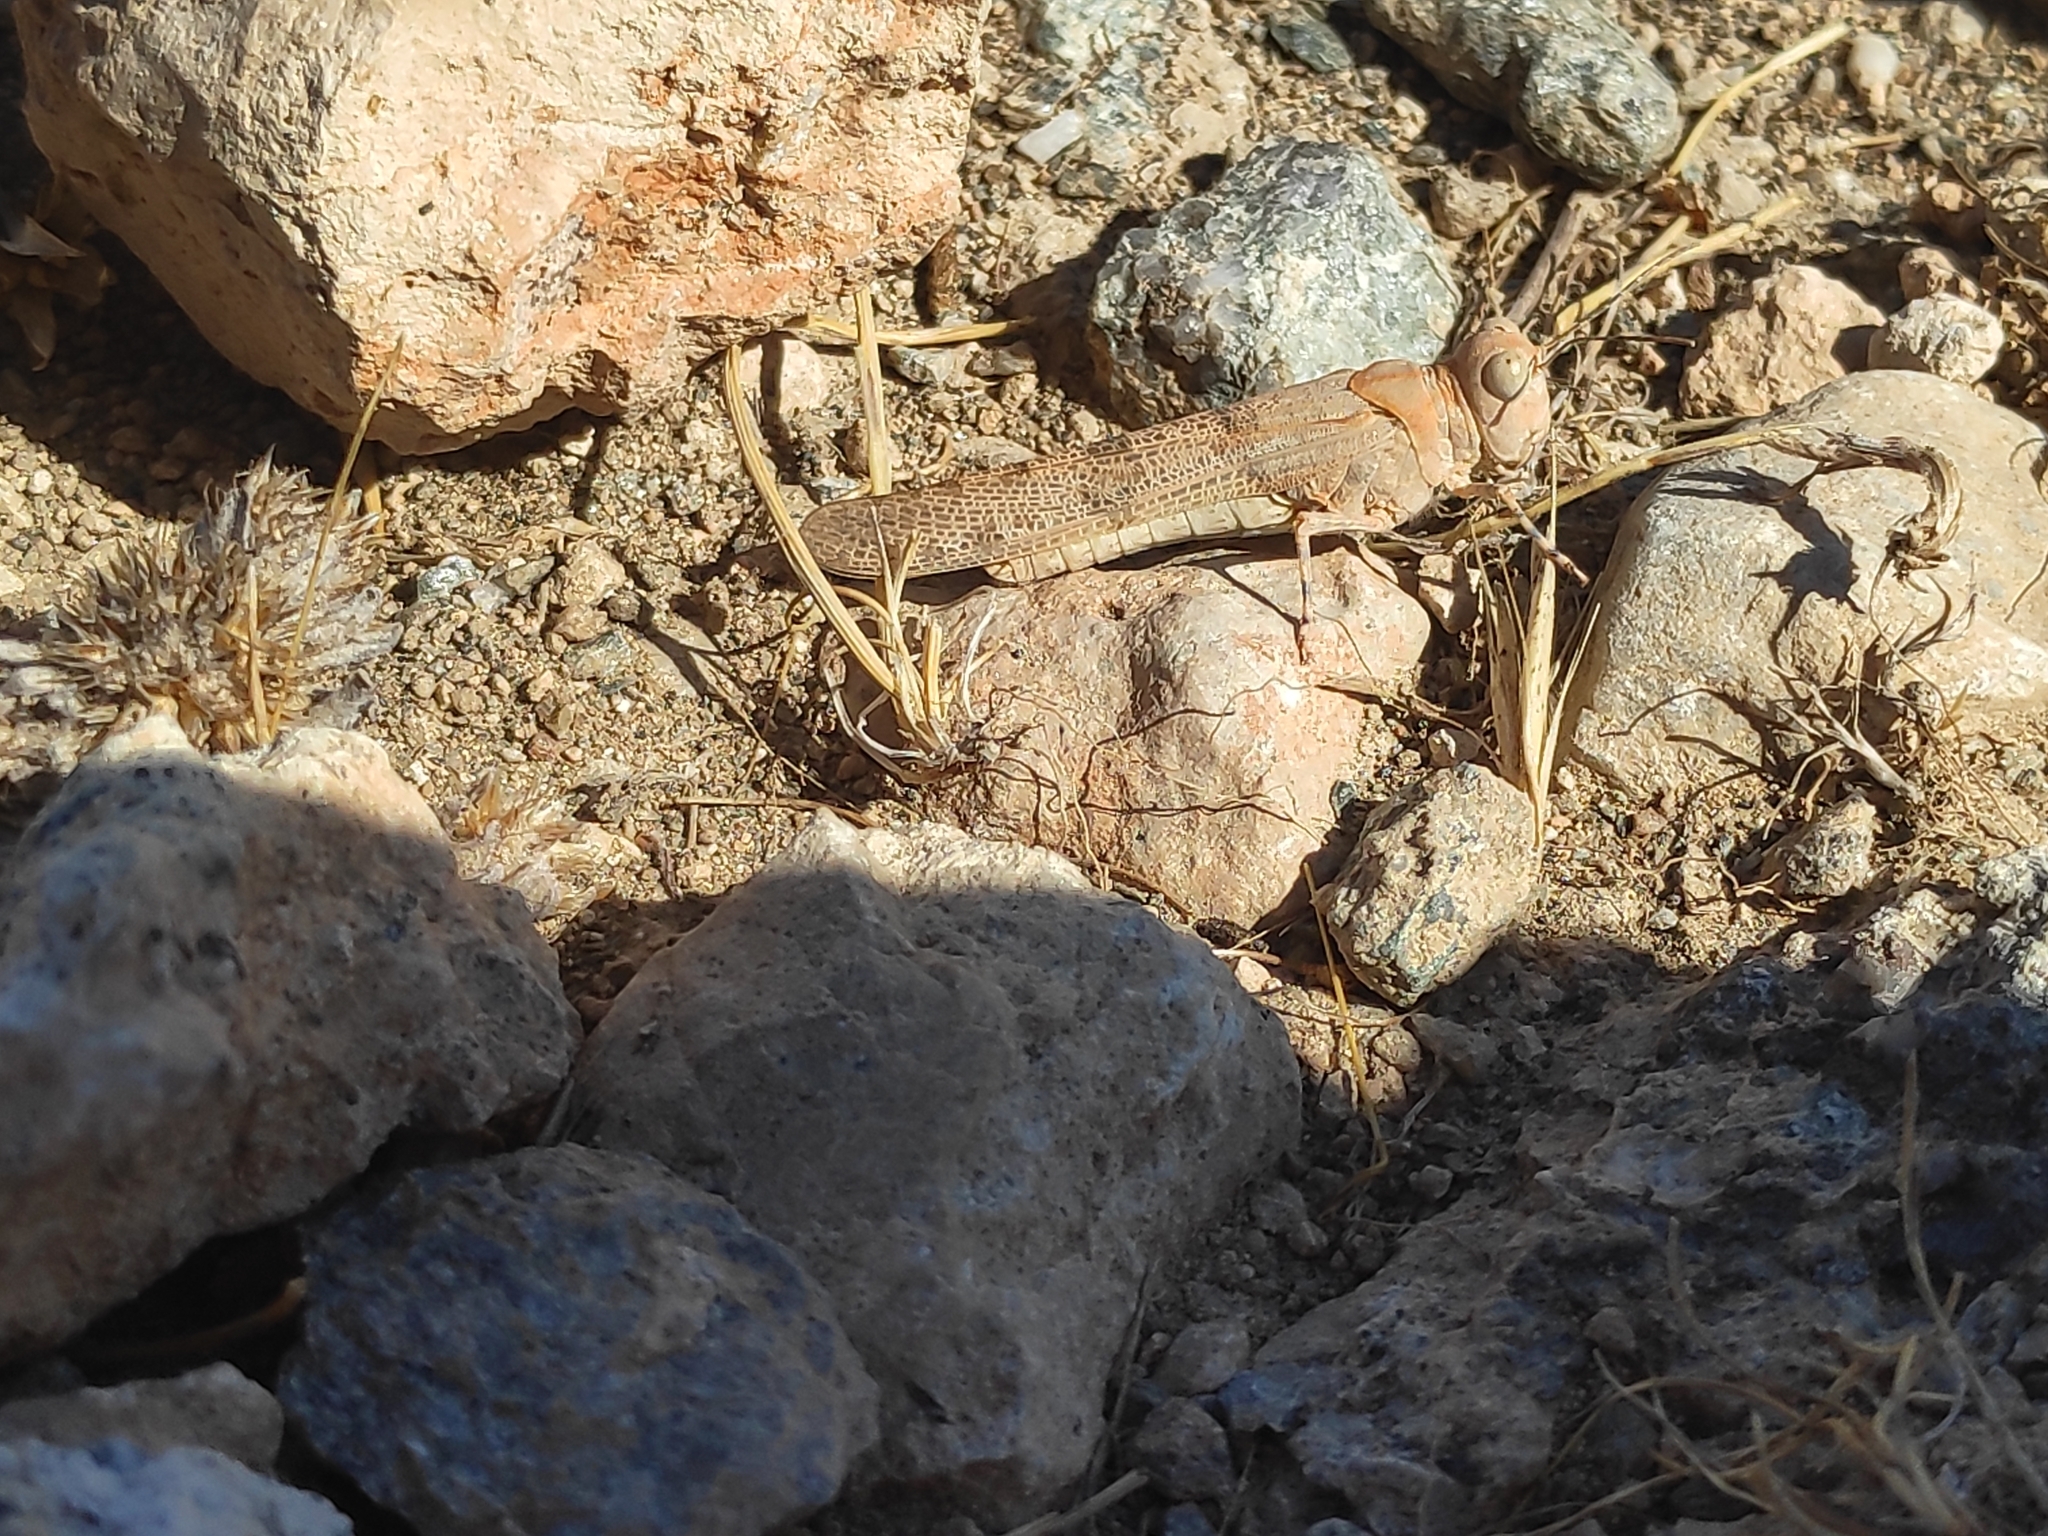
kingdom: Animalia
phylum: Arthropoda
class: Insecta
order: Orthoptera
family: Acrididae
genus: Sphingoderus
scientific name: Sphingoderus carinatus
